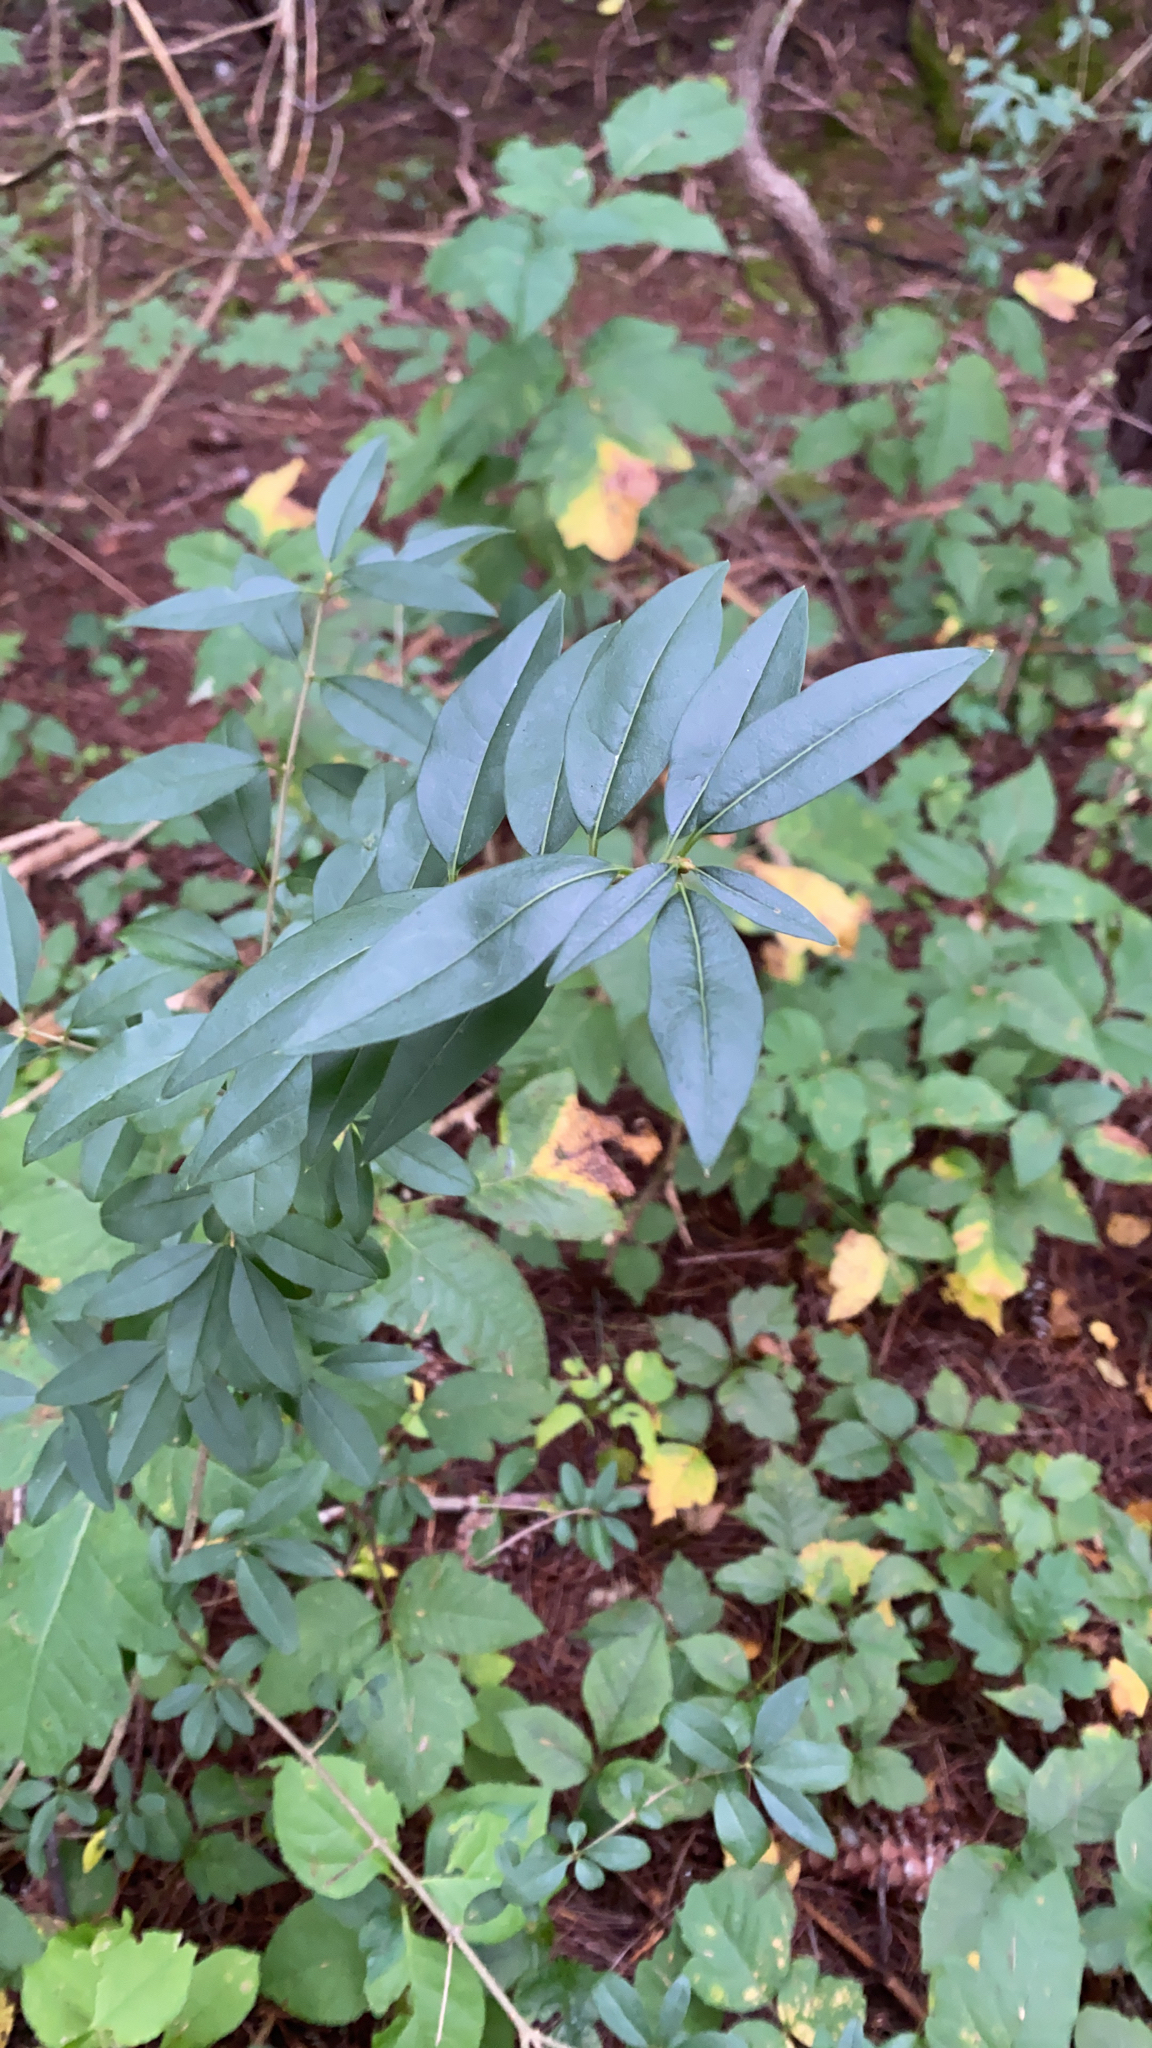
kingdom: Plantae
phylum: Tracheophyta
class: Magnoliopsida
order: Lamiales
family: Oleaceae
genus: Ligustrum
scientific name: Ligustrum
